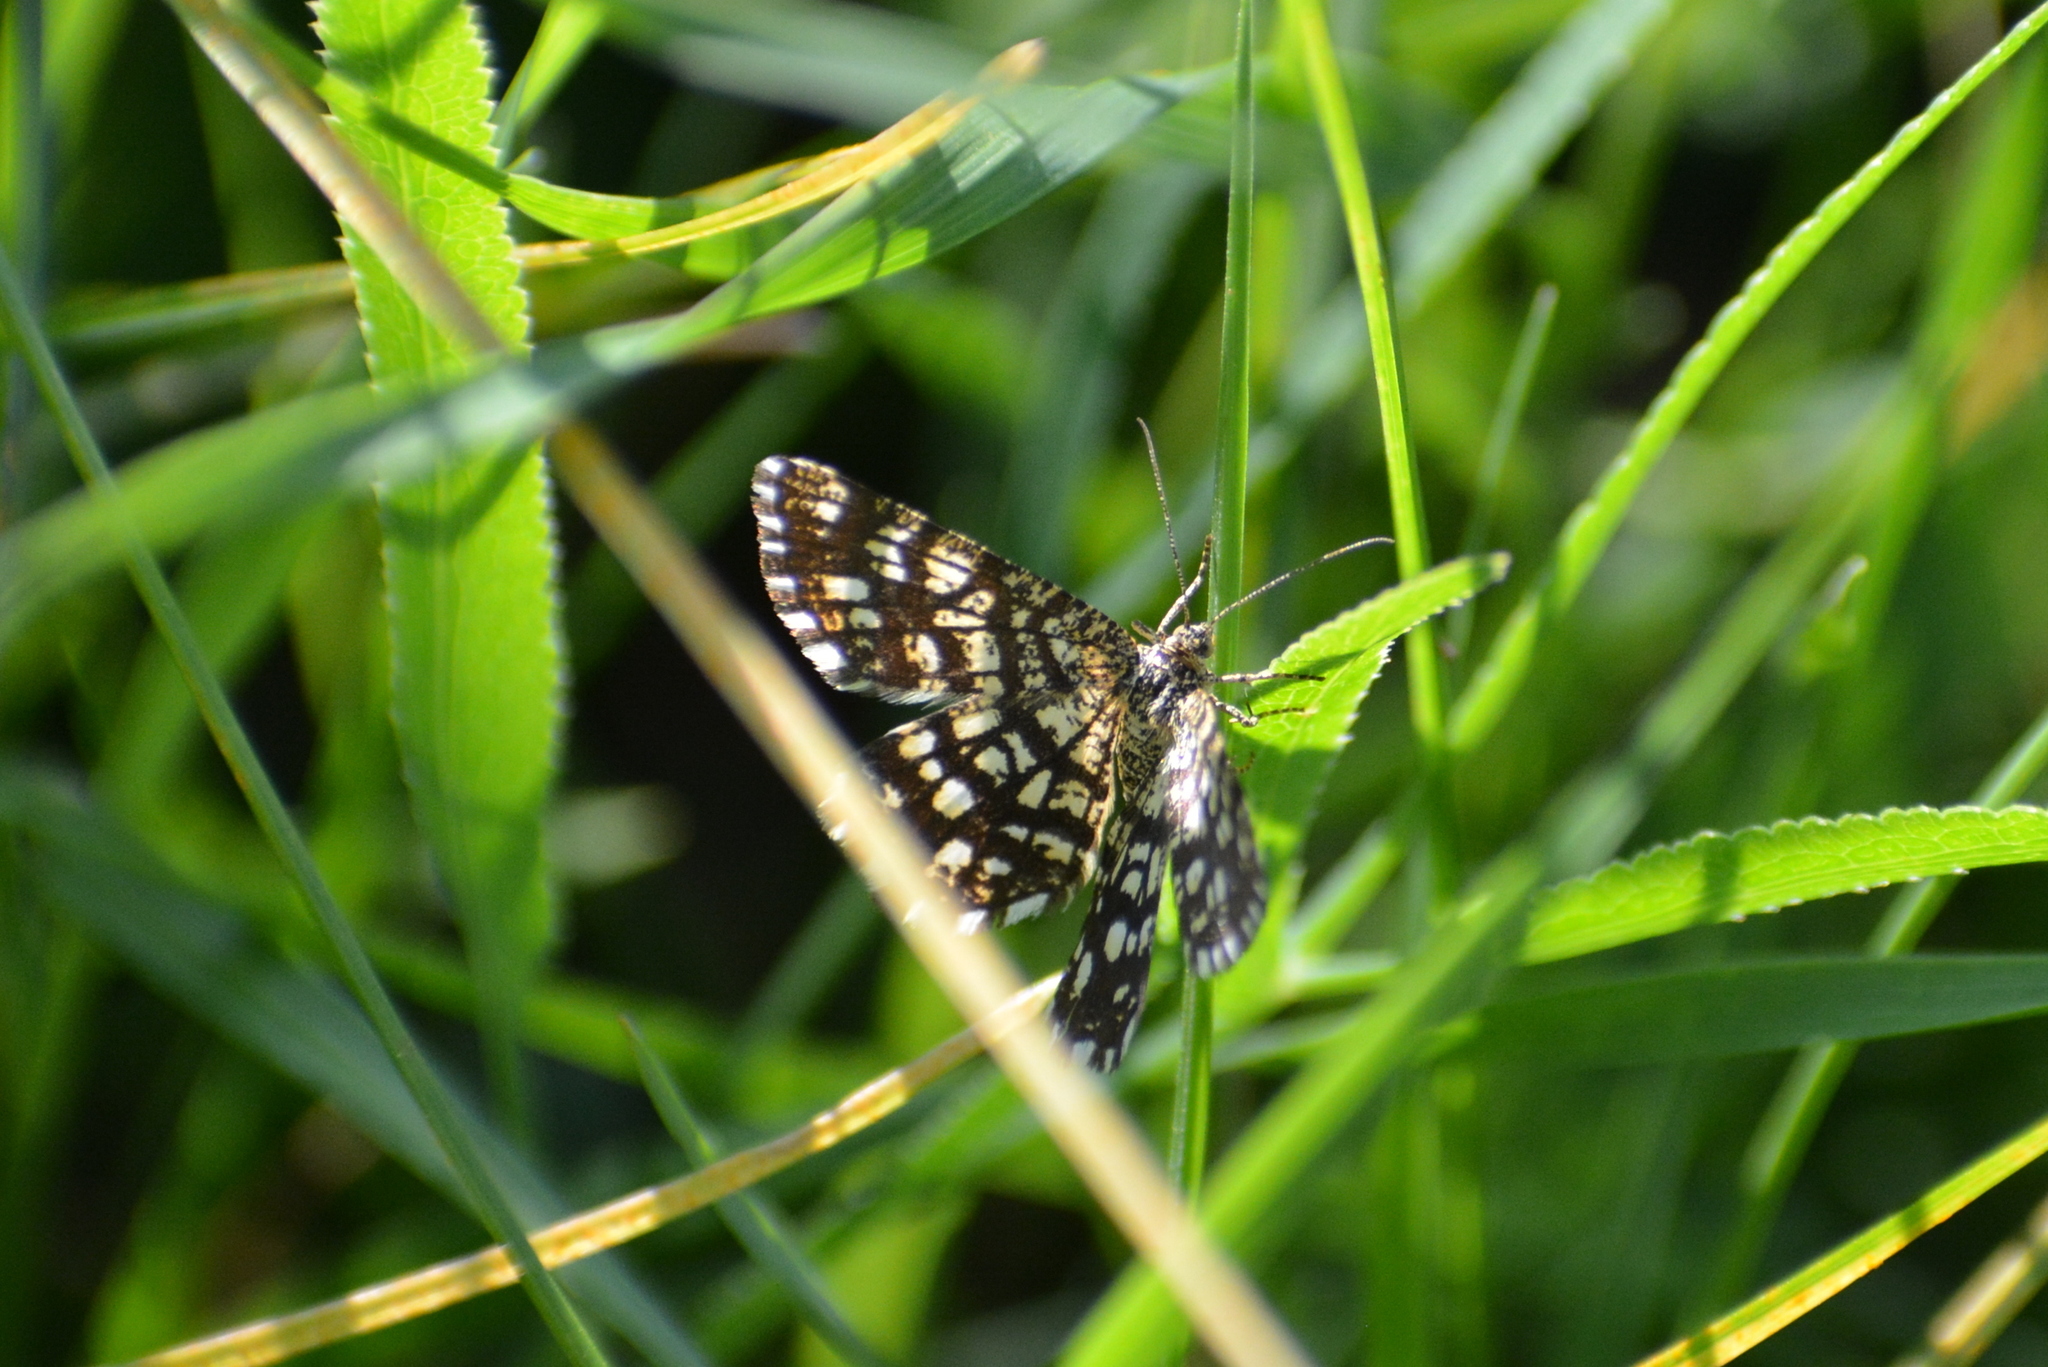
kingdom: Animalia
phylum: Arthropoda
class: Insecta
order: Lepidoptera
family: Geometridae
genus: Chiasmia
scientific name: Chiasmia clathrata
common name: Latticed heath
